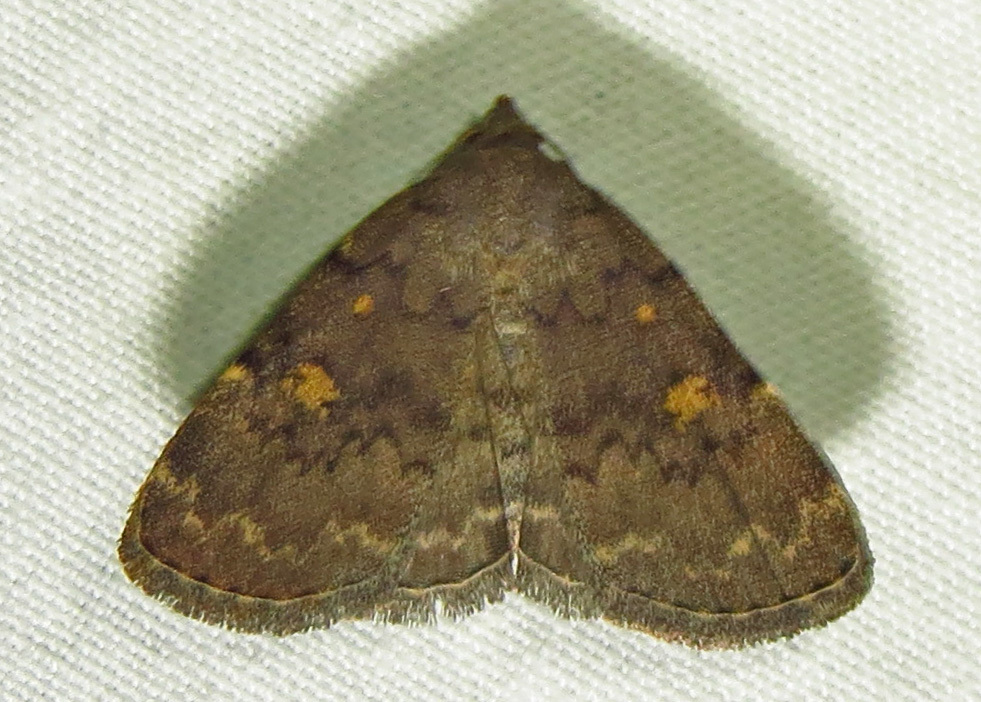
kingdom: Animalia
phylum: Arthropoda
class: Insecta
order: Lepidoptera
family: Erebidae
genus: Idia
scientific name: Idia aemula
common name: Common idia moth
